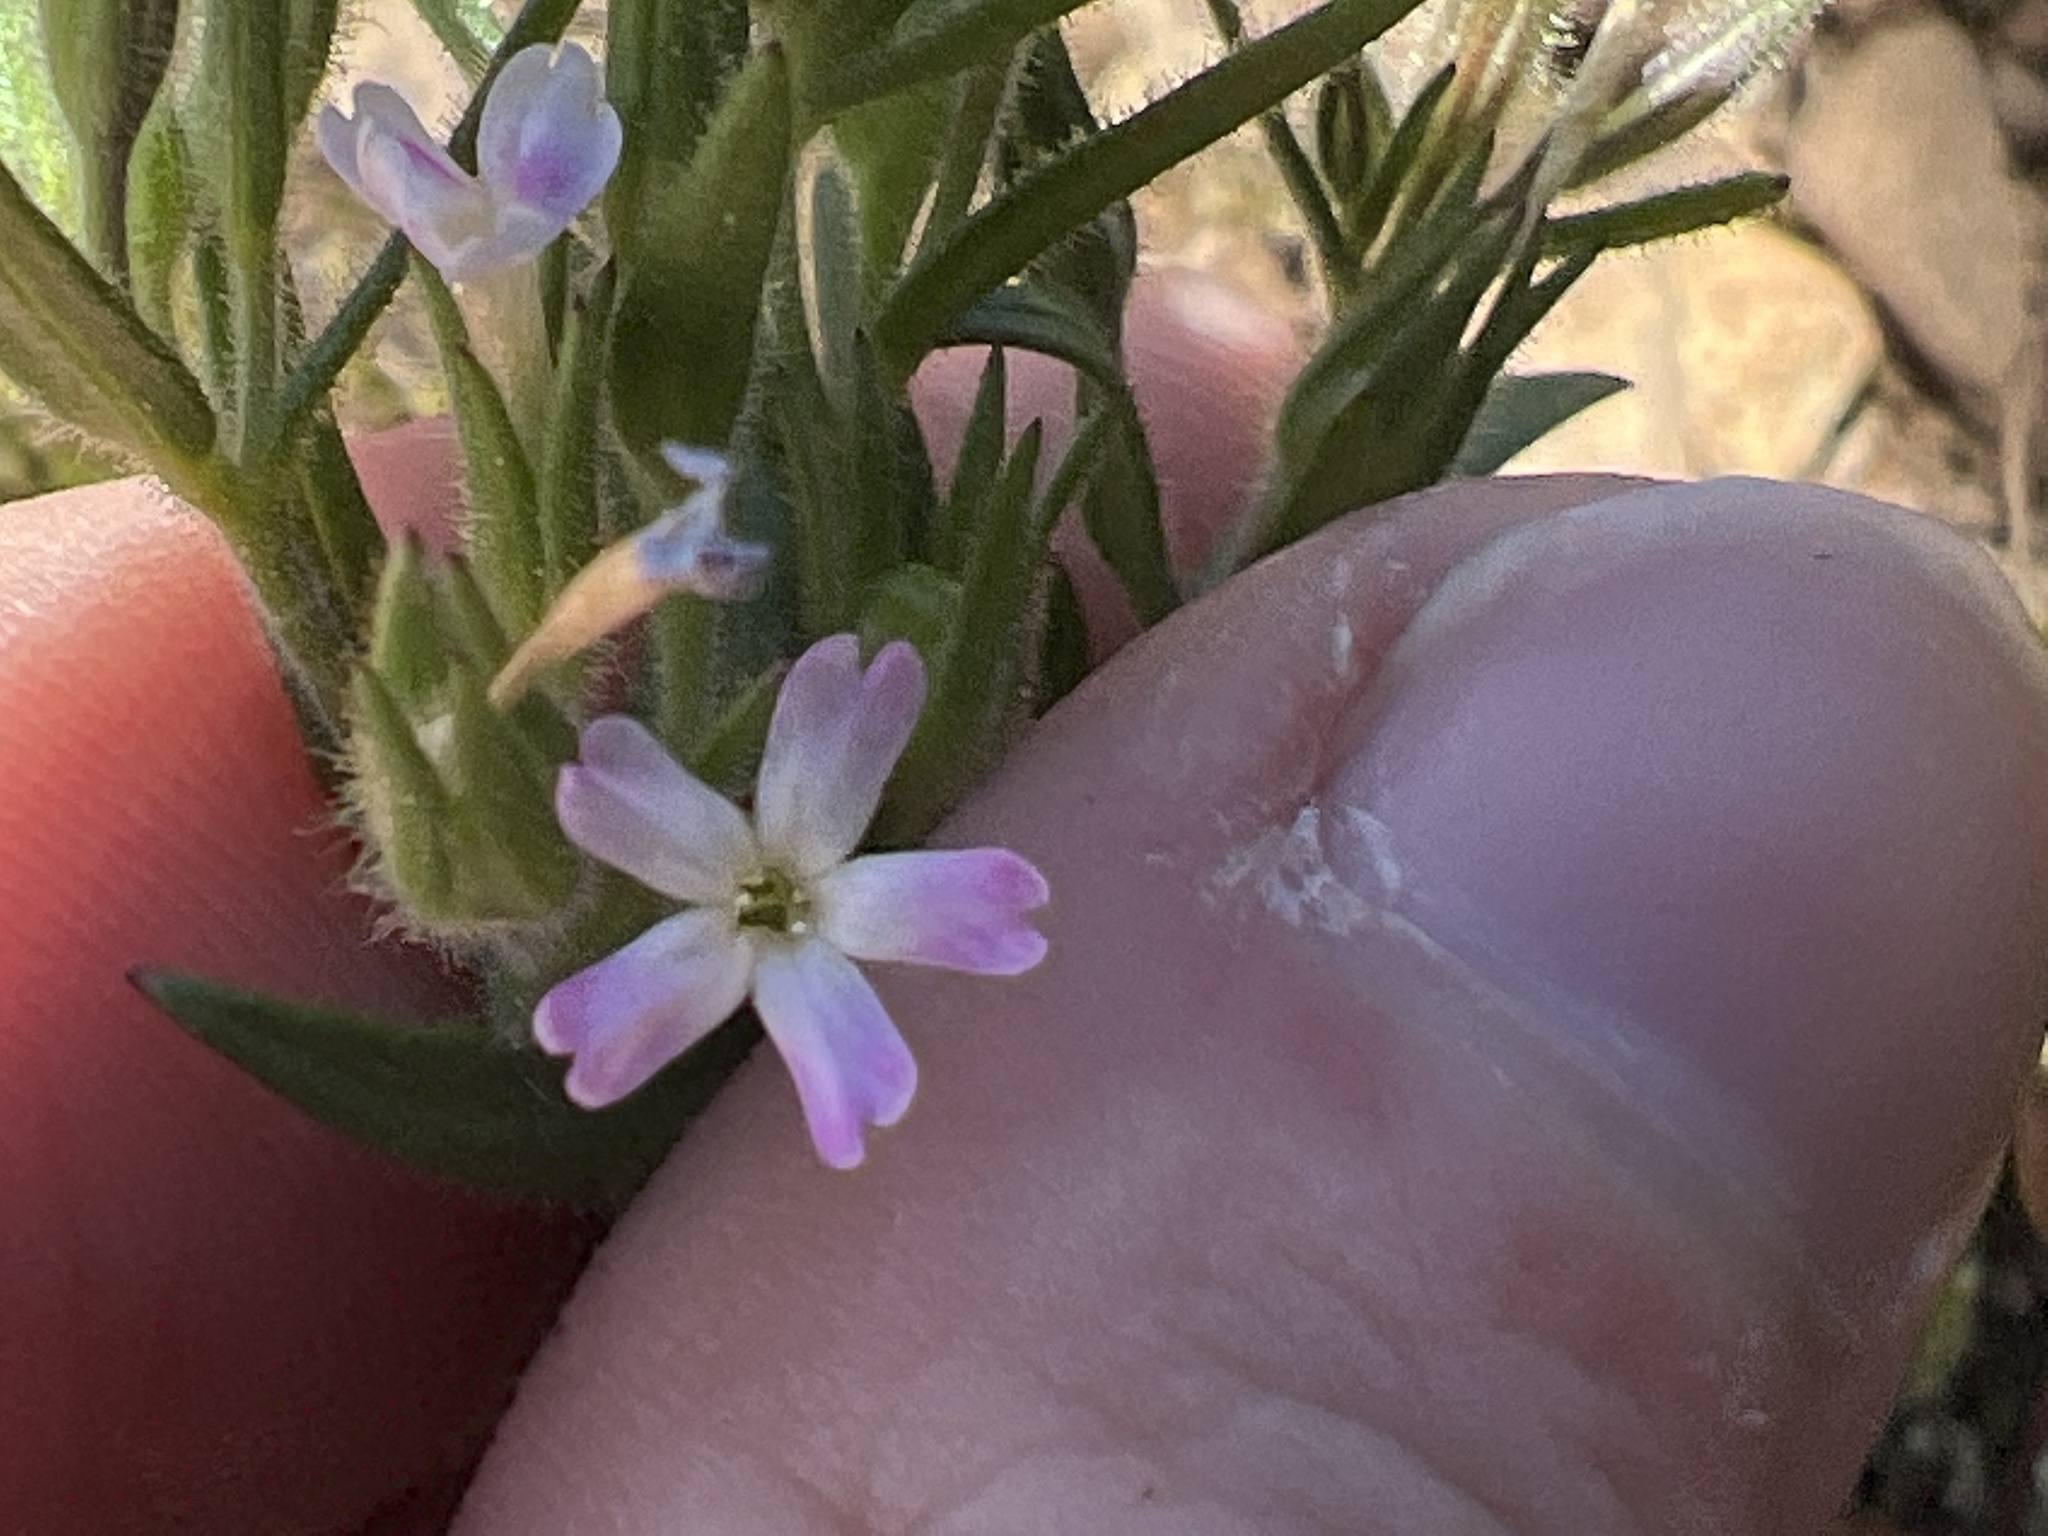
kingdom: Plantae
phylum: Tracheophyta
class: Magnoliopsida
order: Ericales
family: Polemoniaceae
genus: Phlox
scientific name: Phlox gracilis
